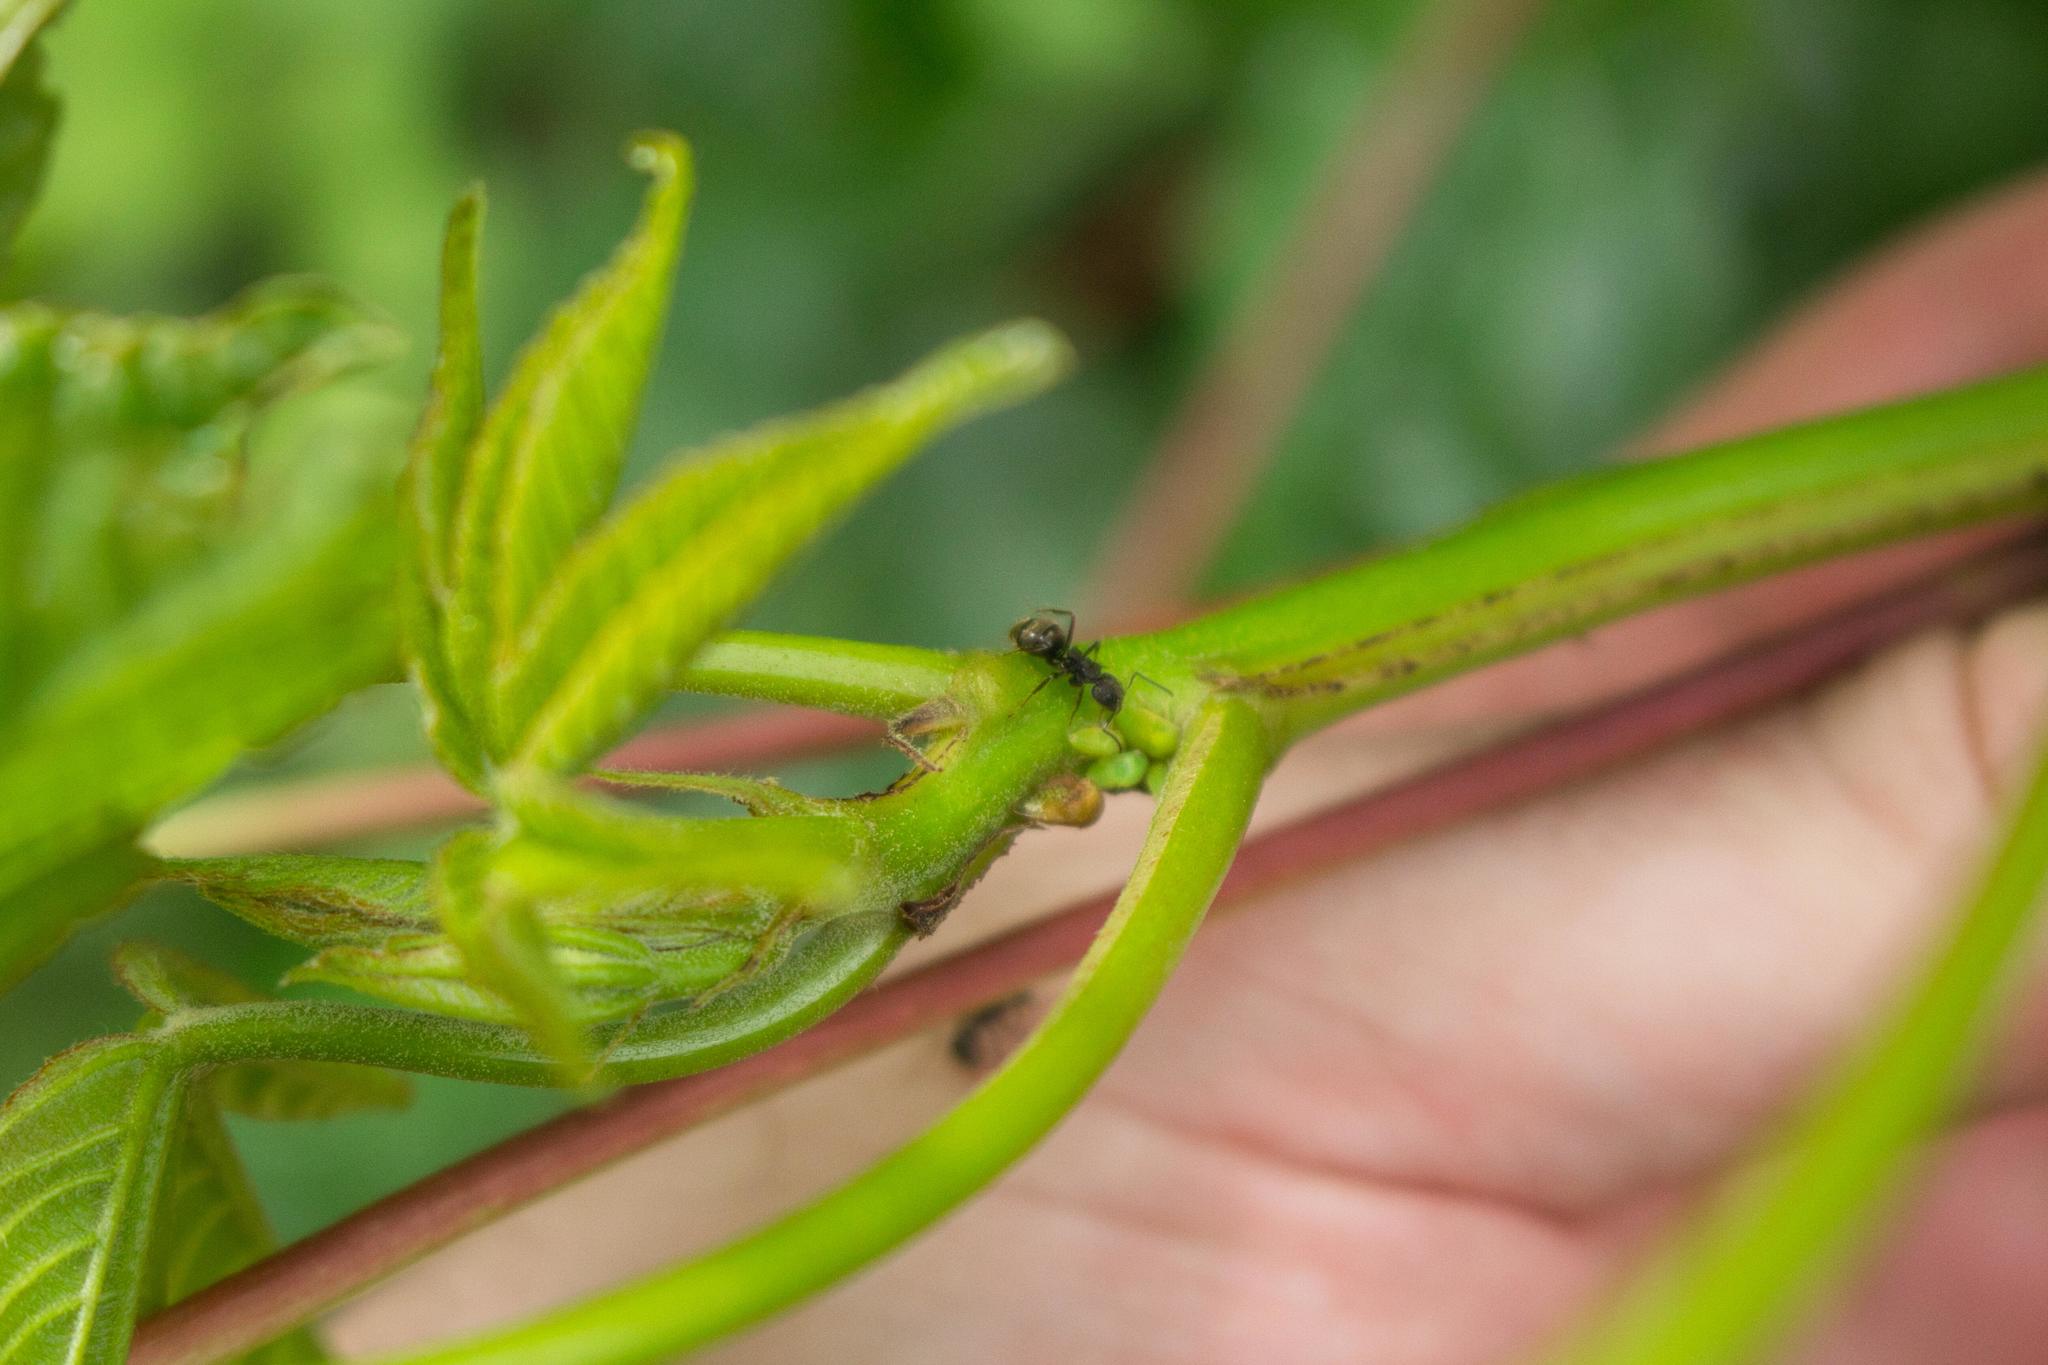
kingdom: Plantae
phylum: Tracheophyta
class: Magnoliopsida
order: Malvales
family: Cochlospermaceae
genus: Cochlospermum
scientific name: Cochlospermum vitifolium
